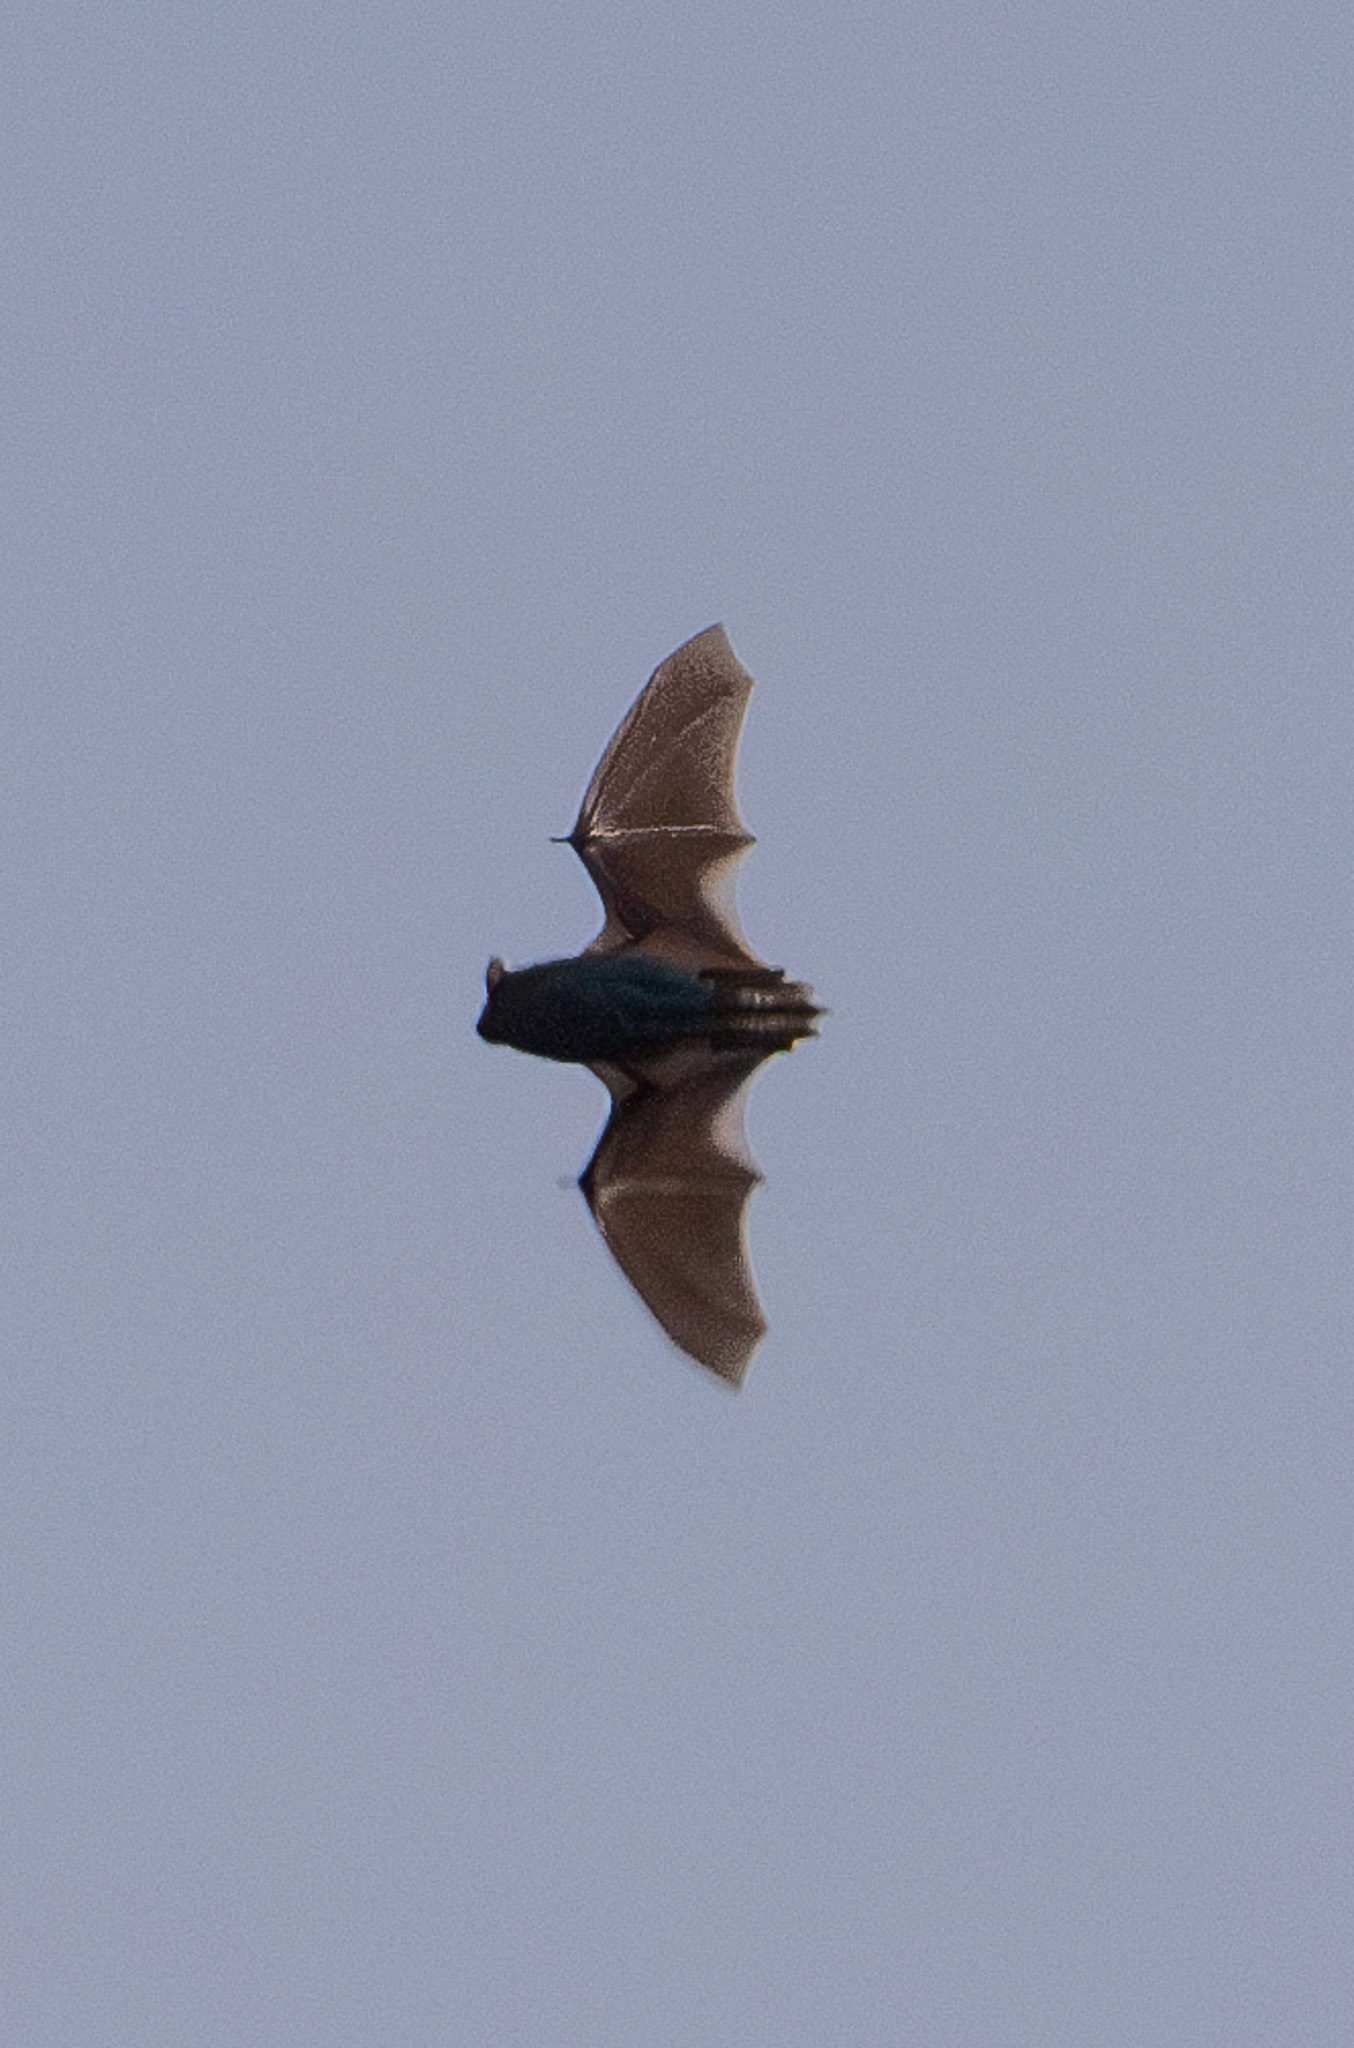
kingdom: Animalia
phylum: Chordata
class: Mammalia
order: Chiroptera
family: Vespertilionidae
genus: Pipistrellus
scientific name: Pipistrellus kuhlii
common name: Kuhl's pipistrelle
